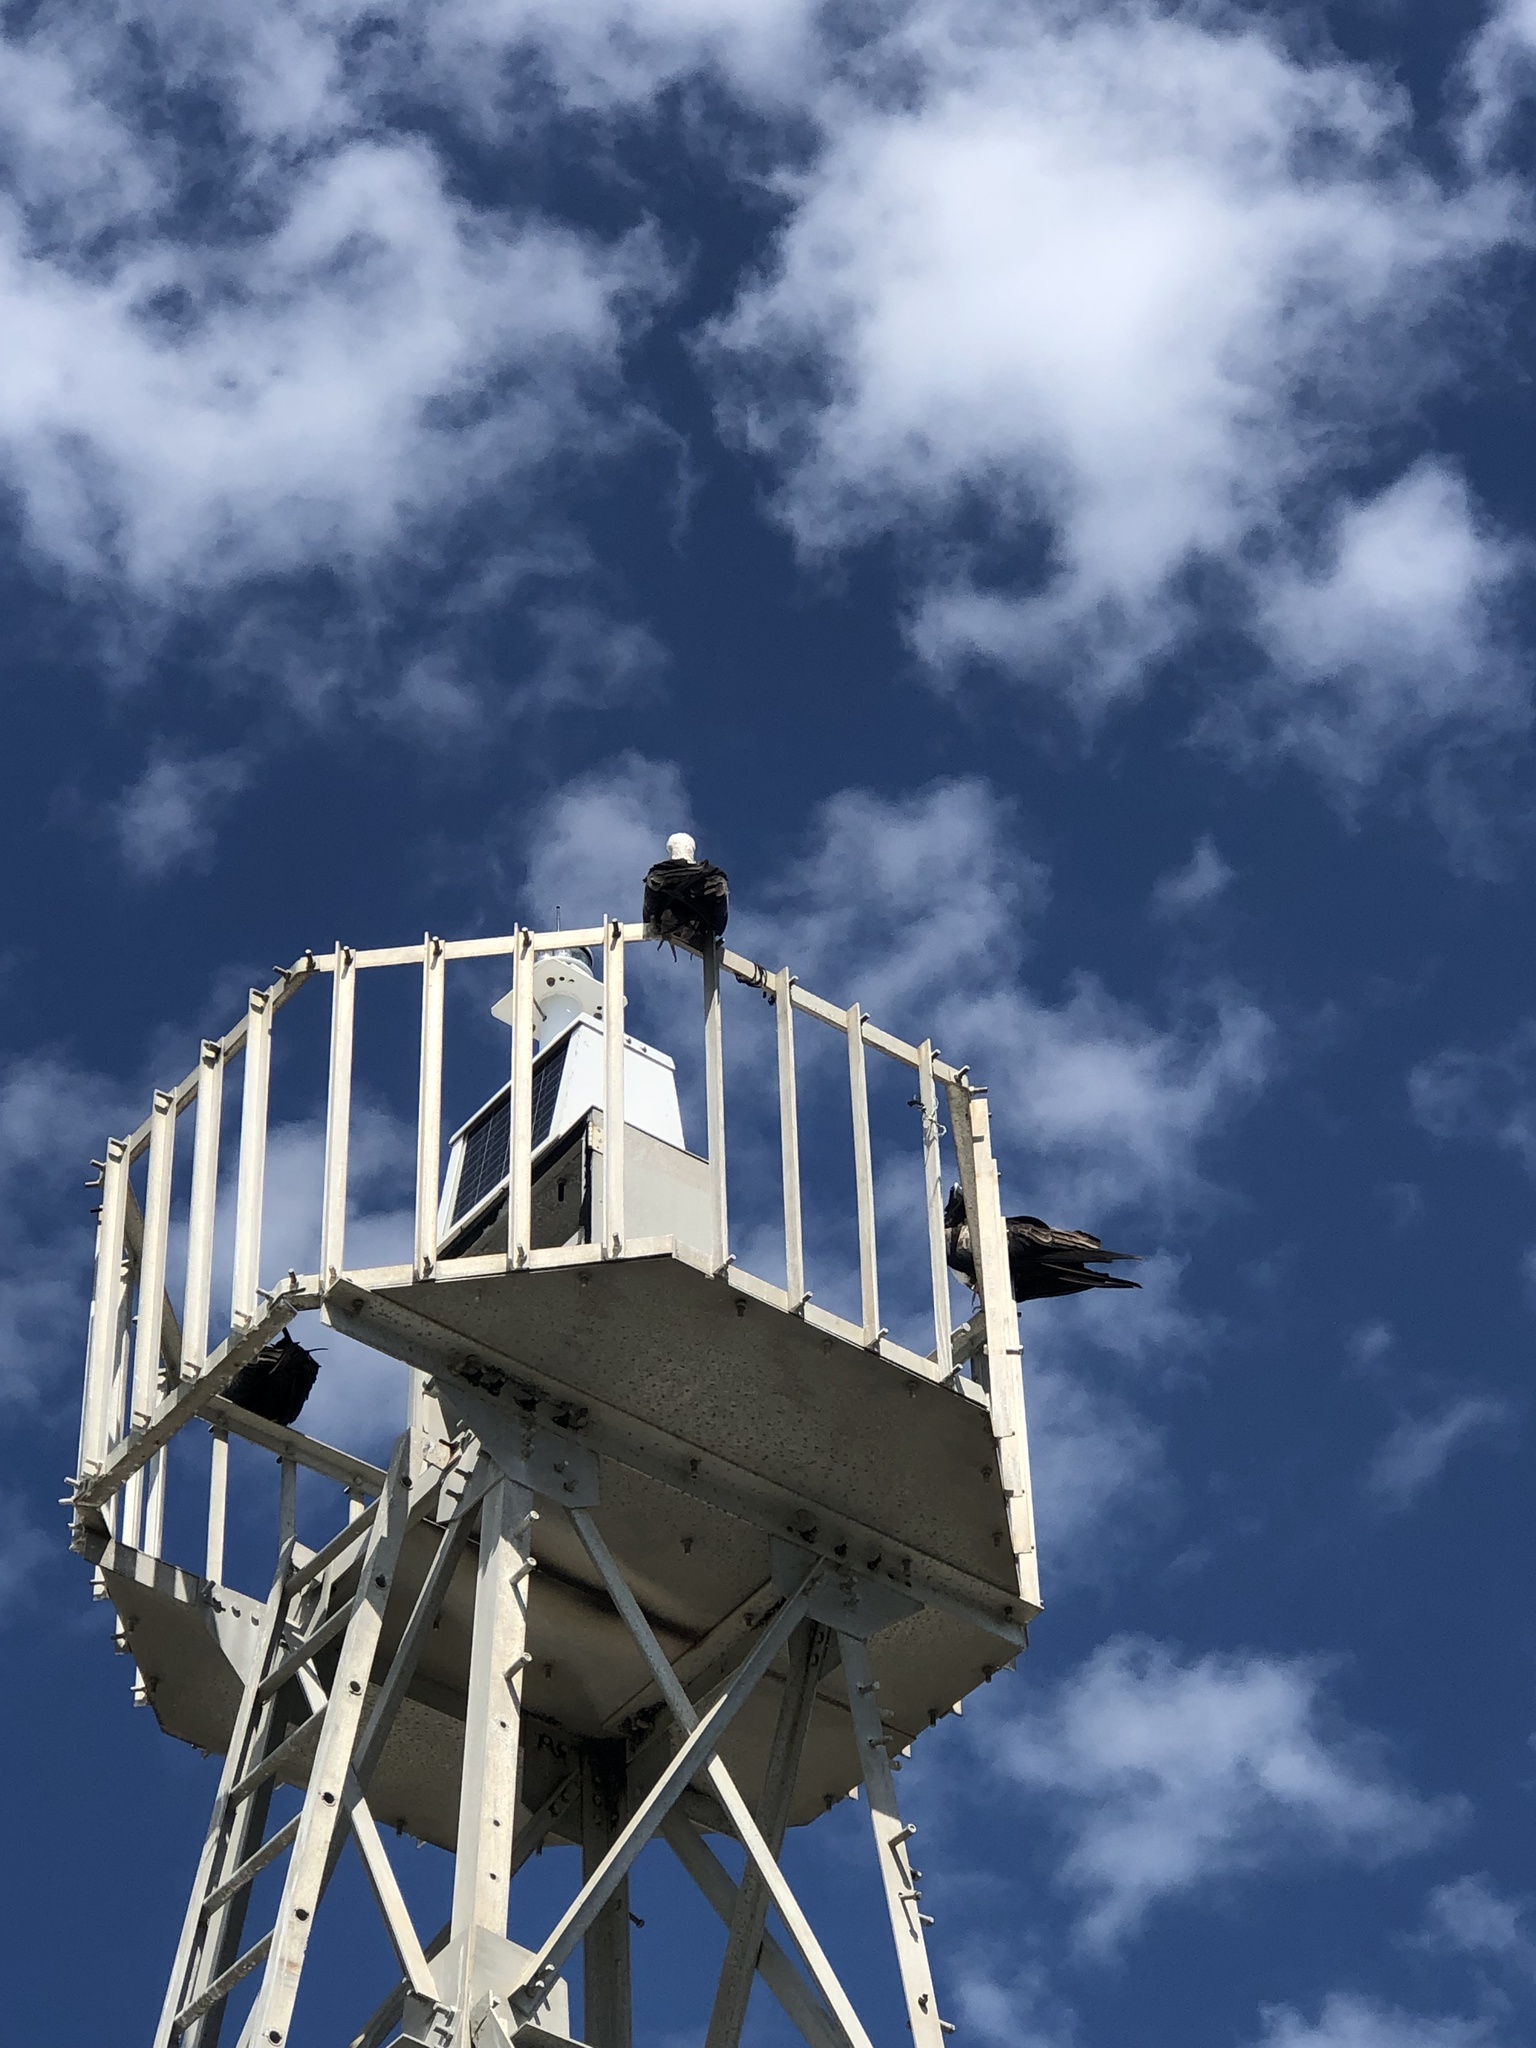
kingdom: Animalia
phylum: Chordata
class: Aves
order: Suliformes
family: Fregatidae
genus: Fregata
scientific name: Fregata magnificens
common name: Magnificent frigatebird
